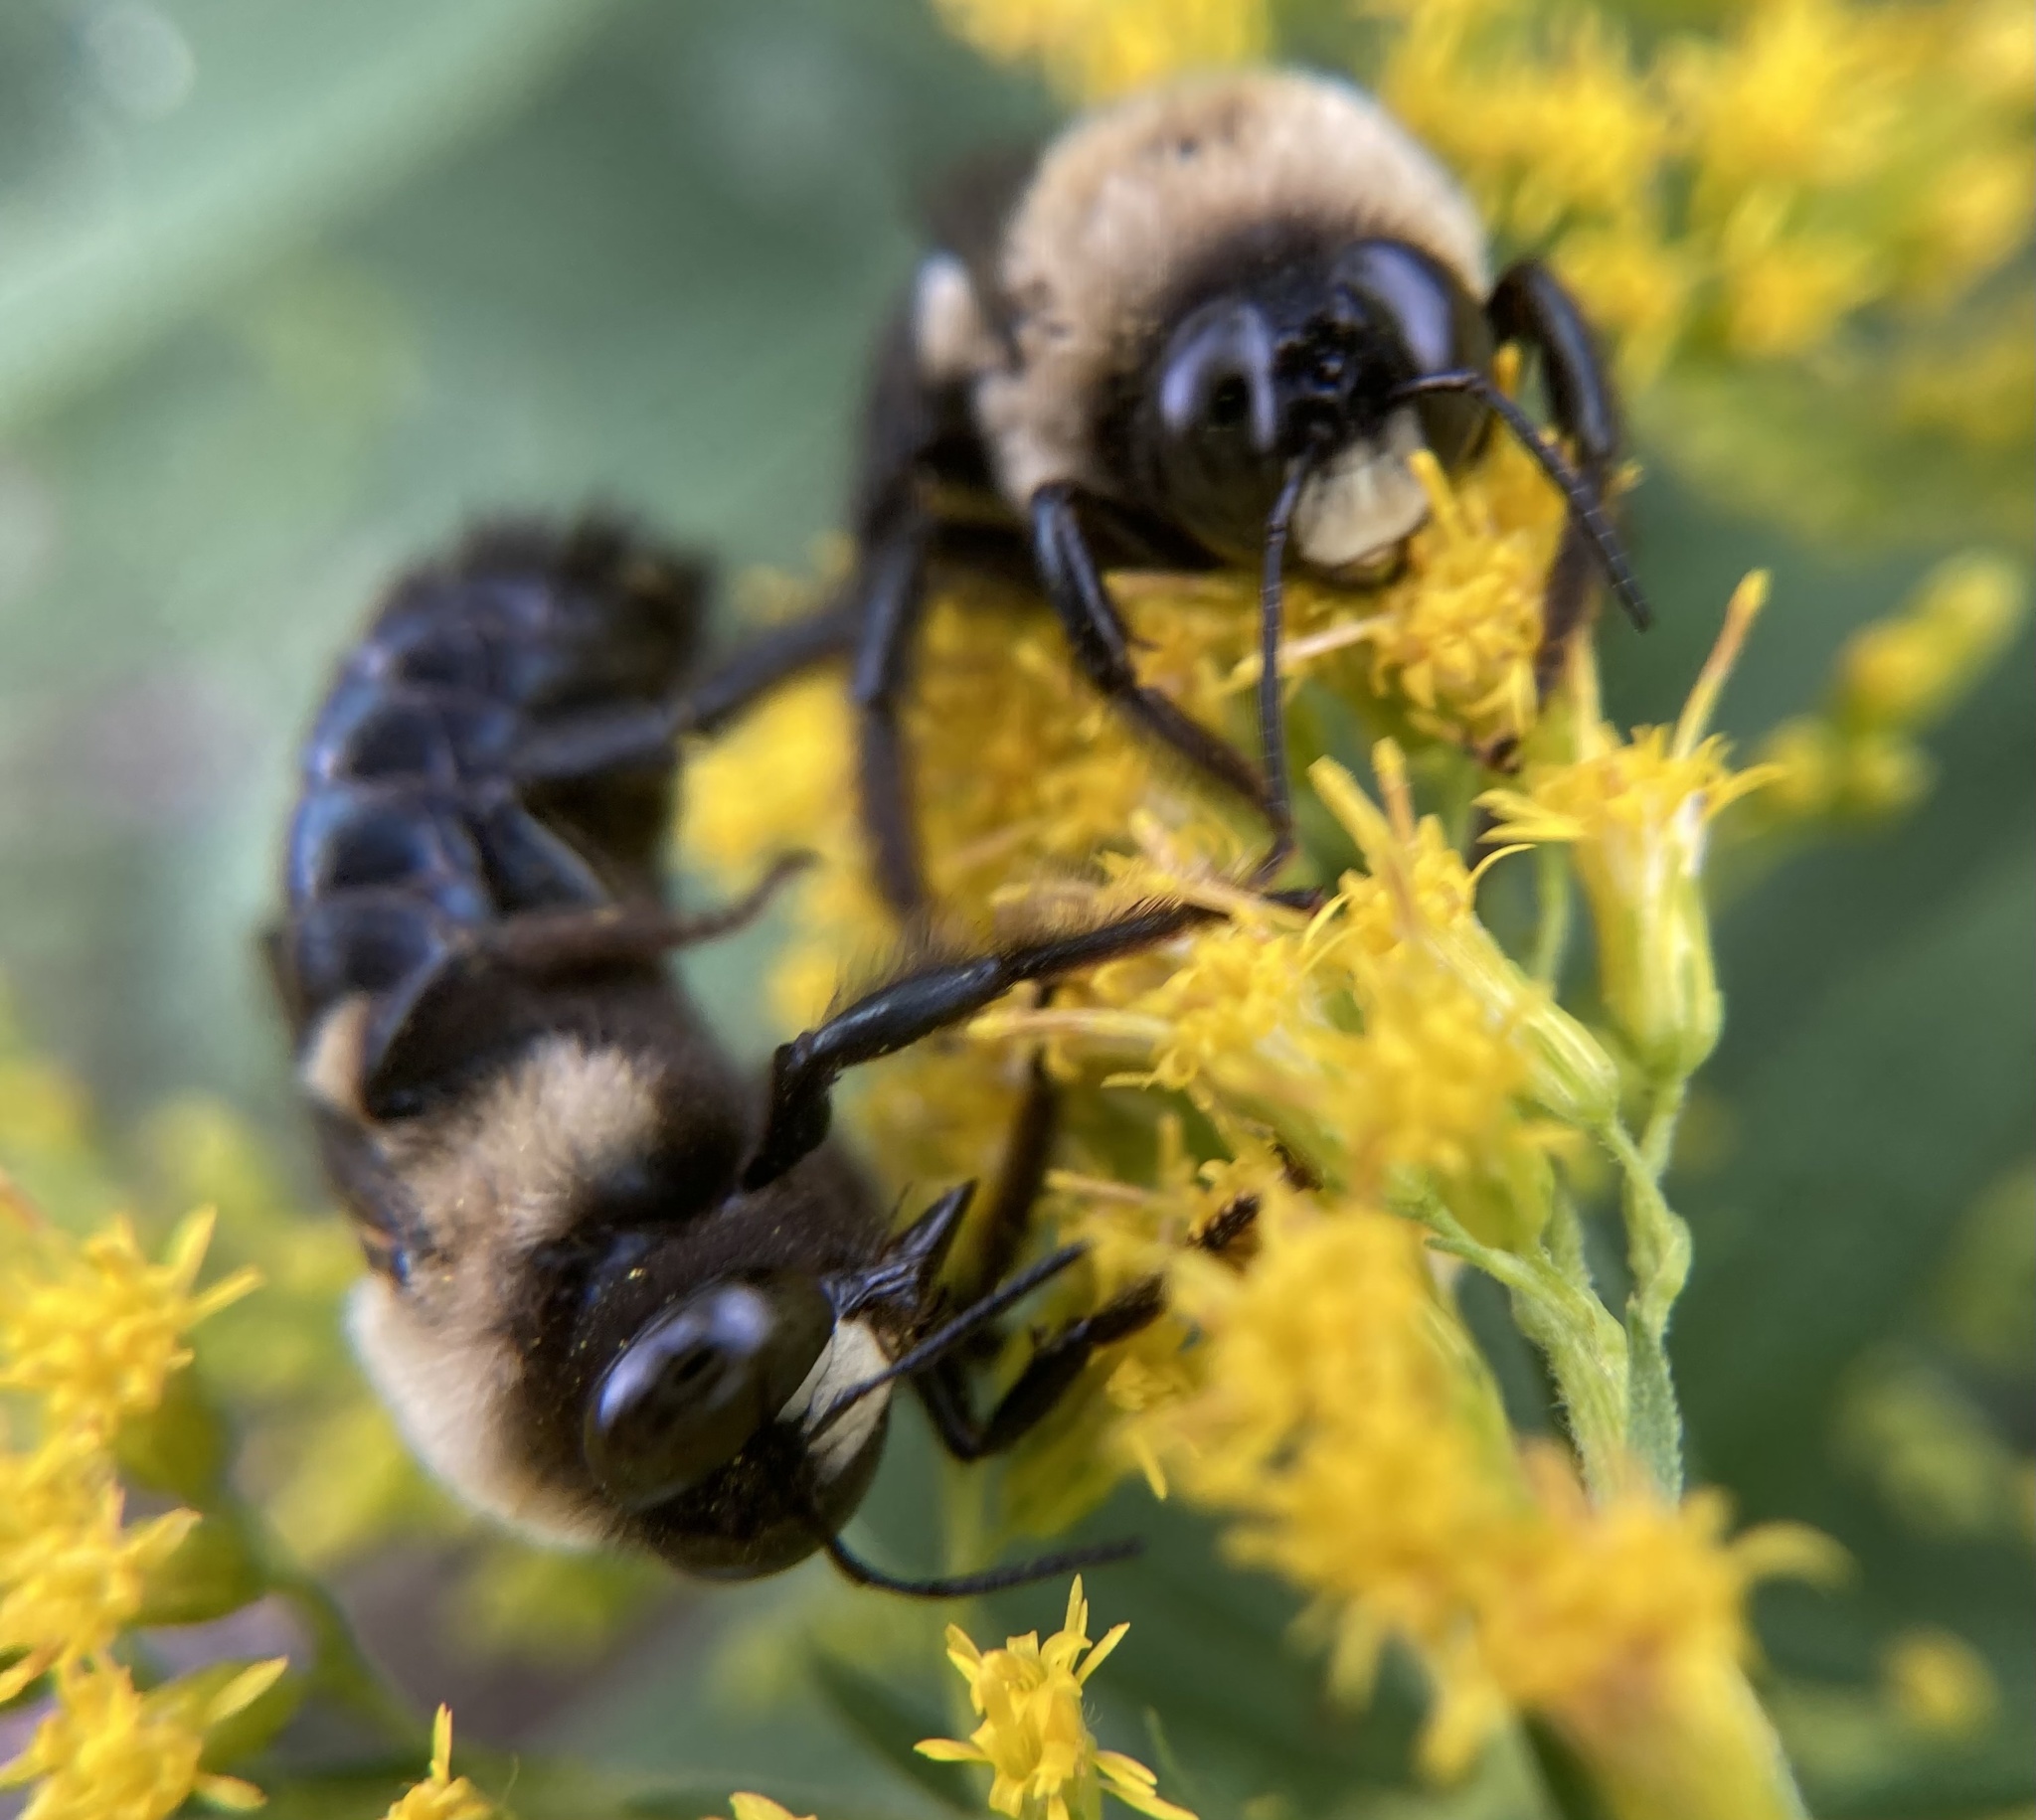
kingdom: Animalia
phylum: Arthropoda
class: Insecta
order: Hymenoptera
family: Apidae
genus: Xylocopa
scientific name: Xylocopa virginica
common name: Carpenter bee
